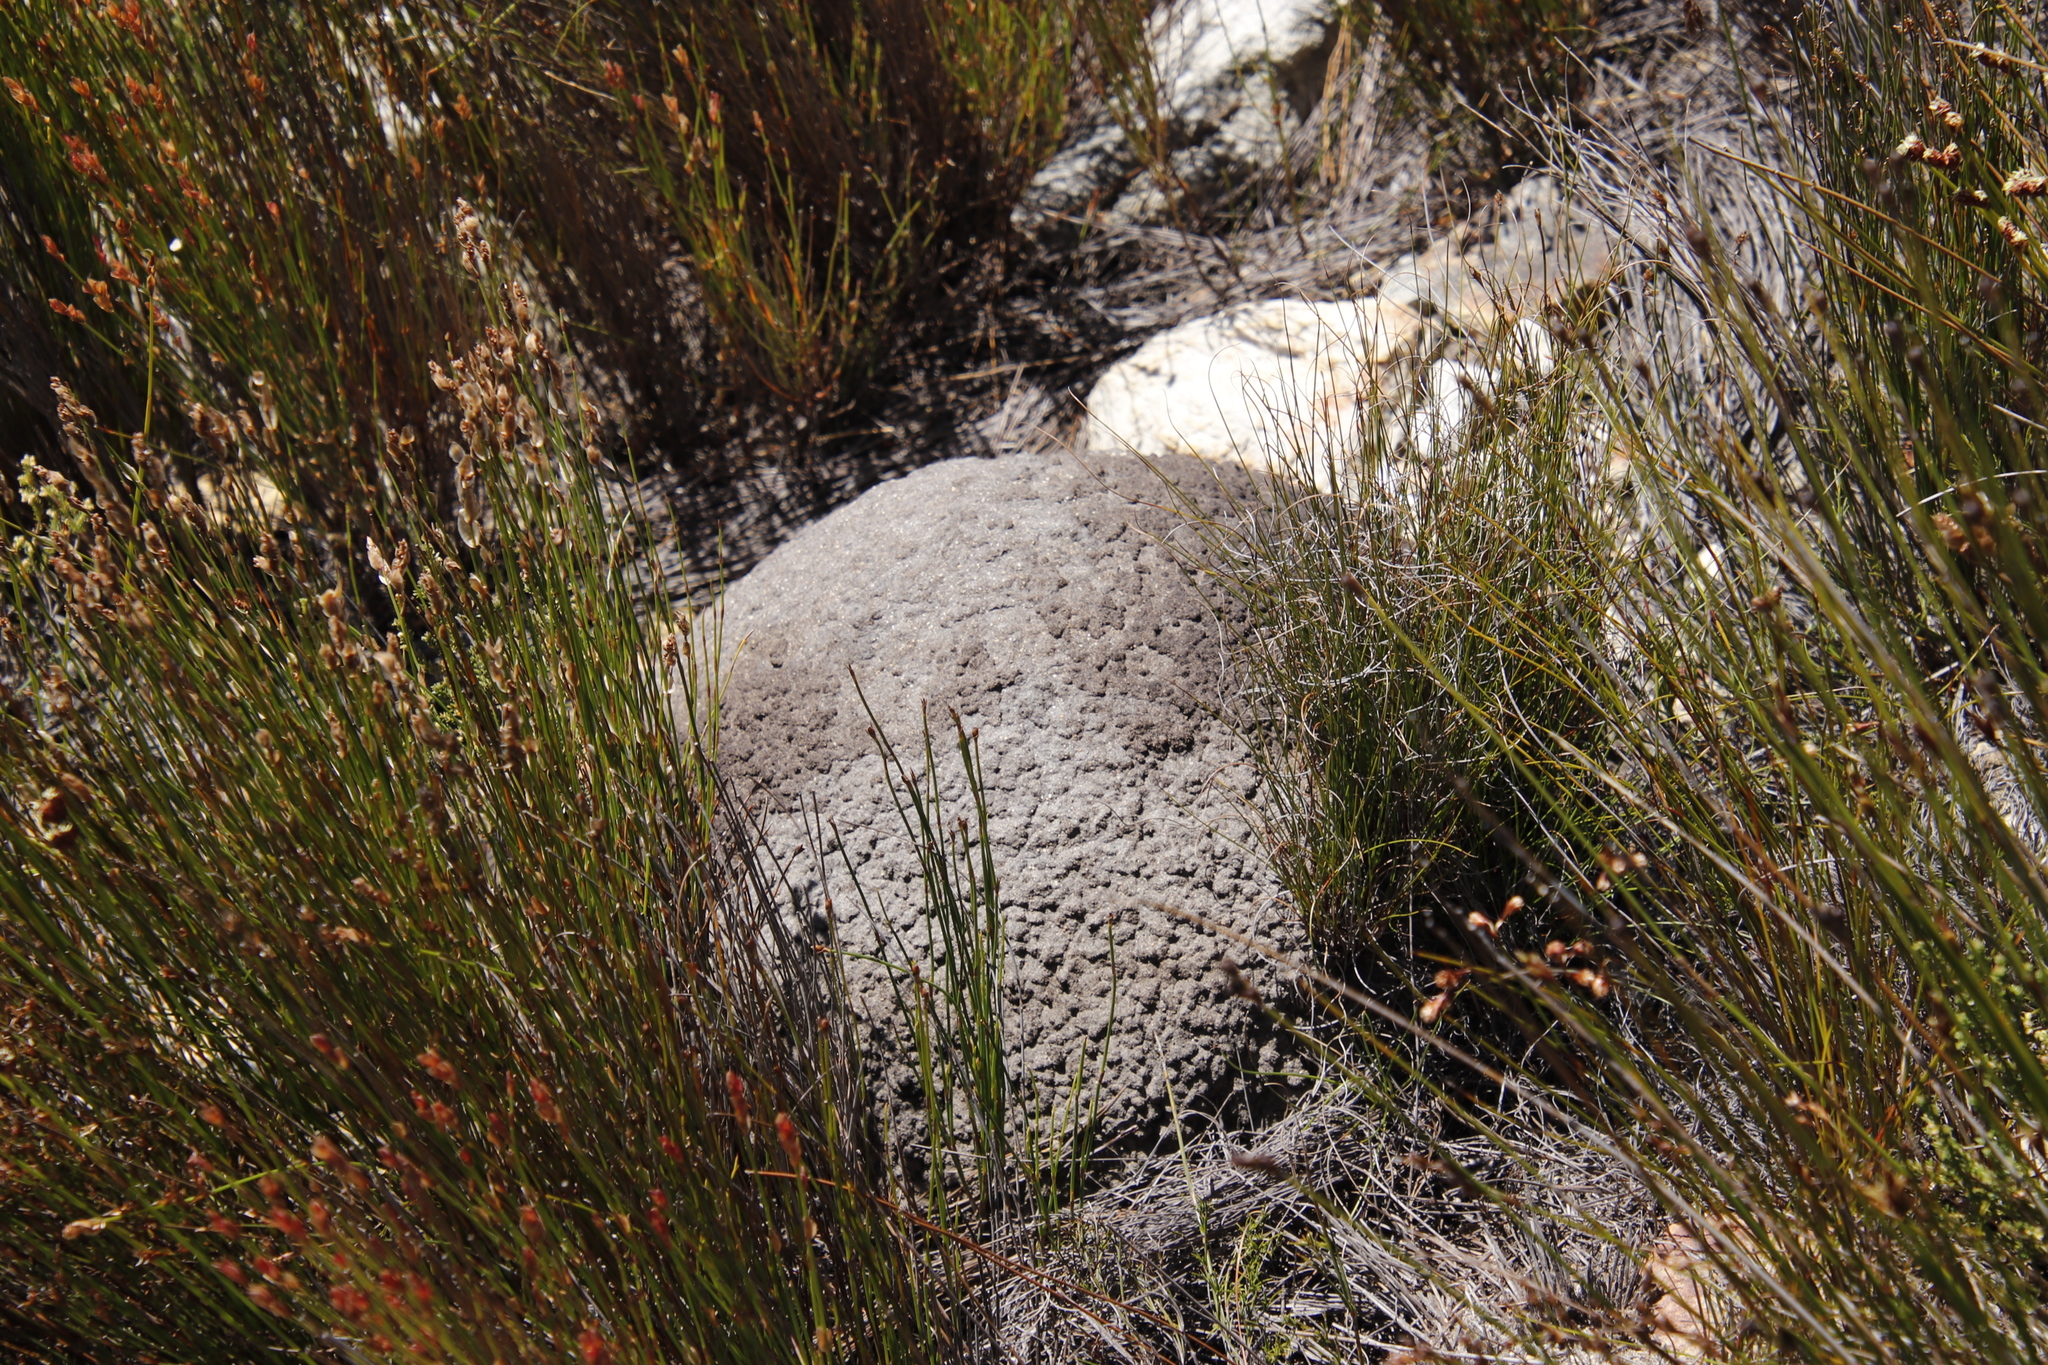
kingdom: Animalia
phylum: Arthropoda
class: Insecta
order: Blattodea
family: Termitidae
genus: Amitermes
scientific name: Amitermes hastatus
